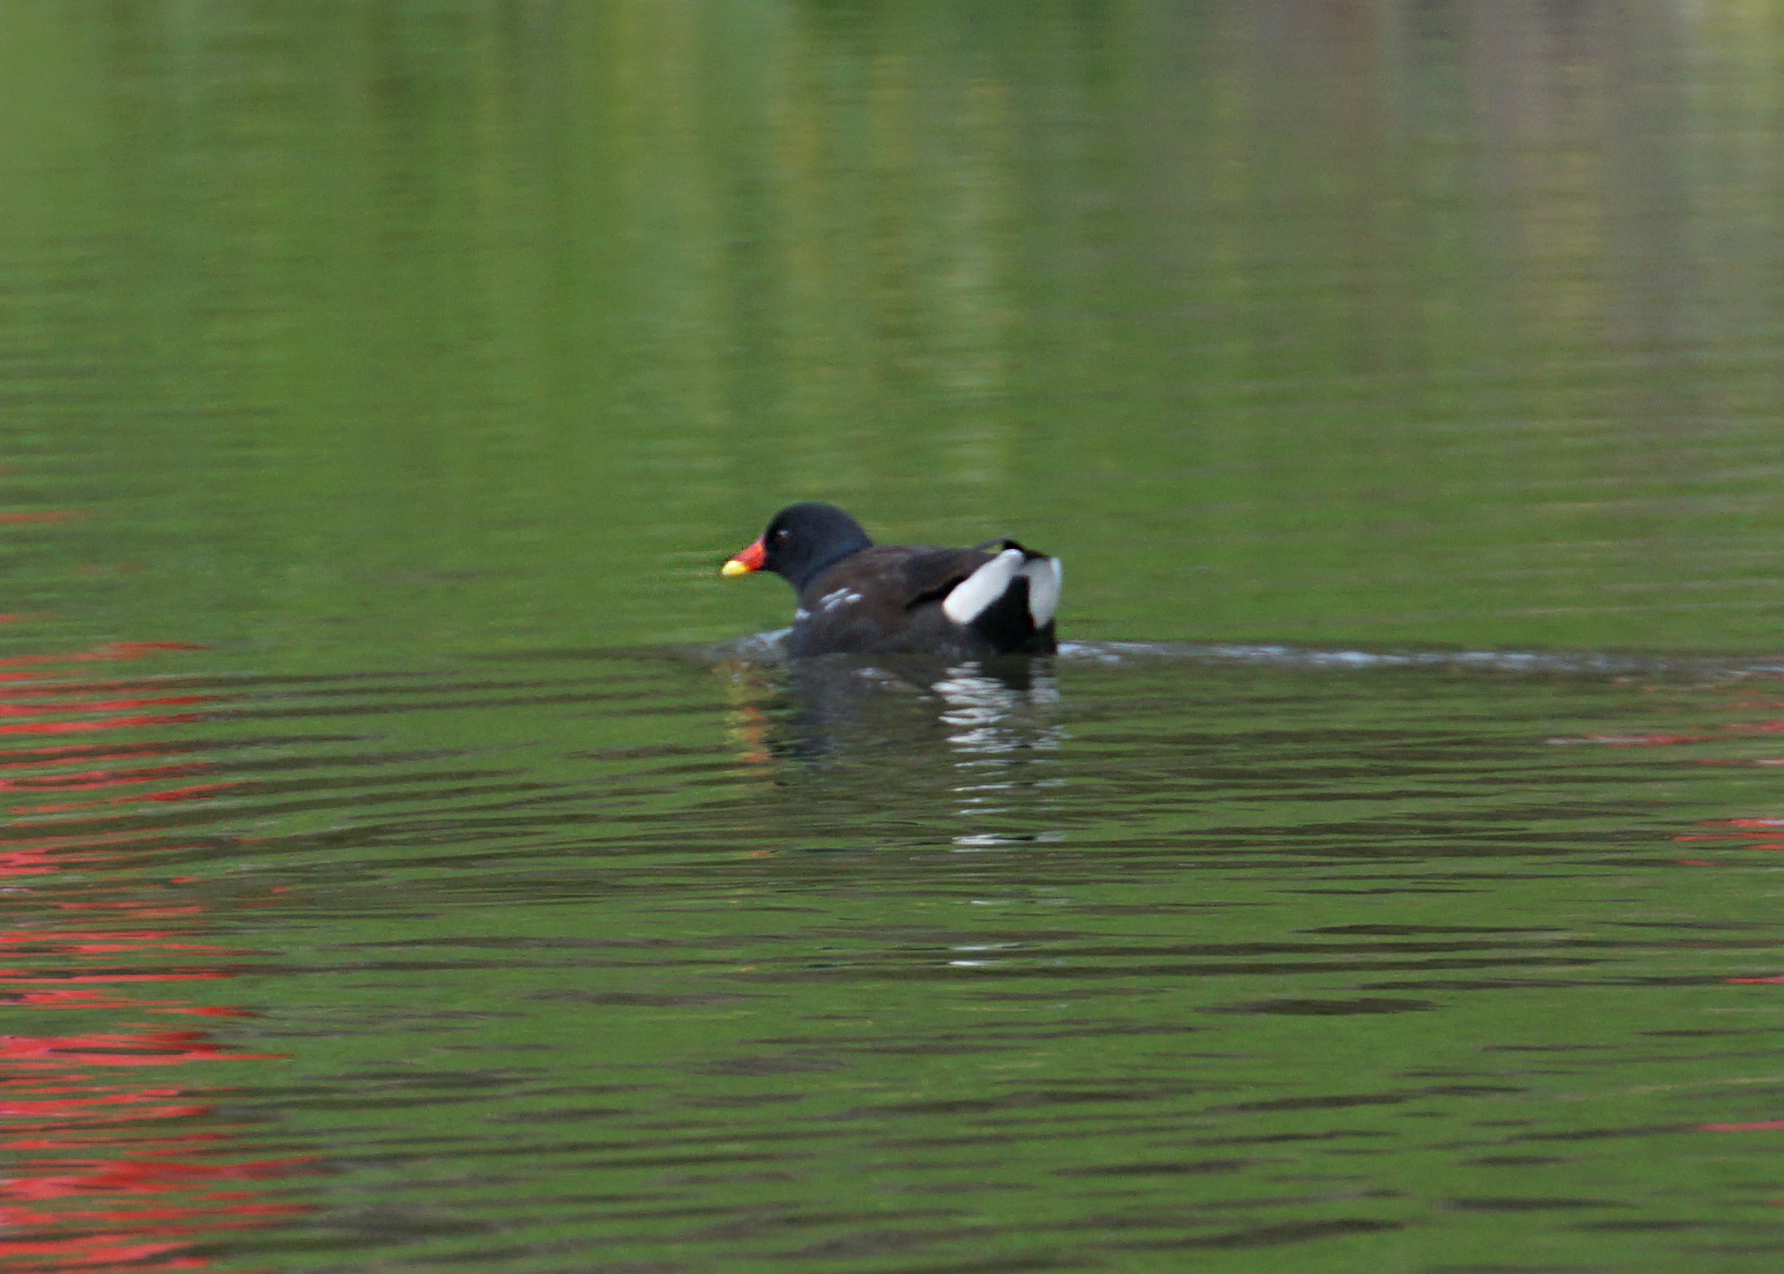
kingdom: Animalia
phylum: Chordata
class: Aves
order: Gruiformes
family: Rallidae
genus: Gallinula
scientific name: Gallinula chloropus
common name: Common moorhen
